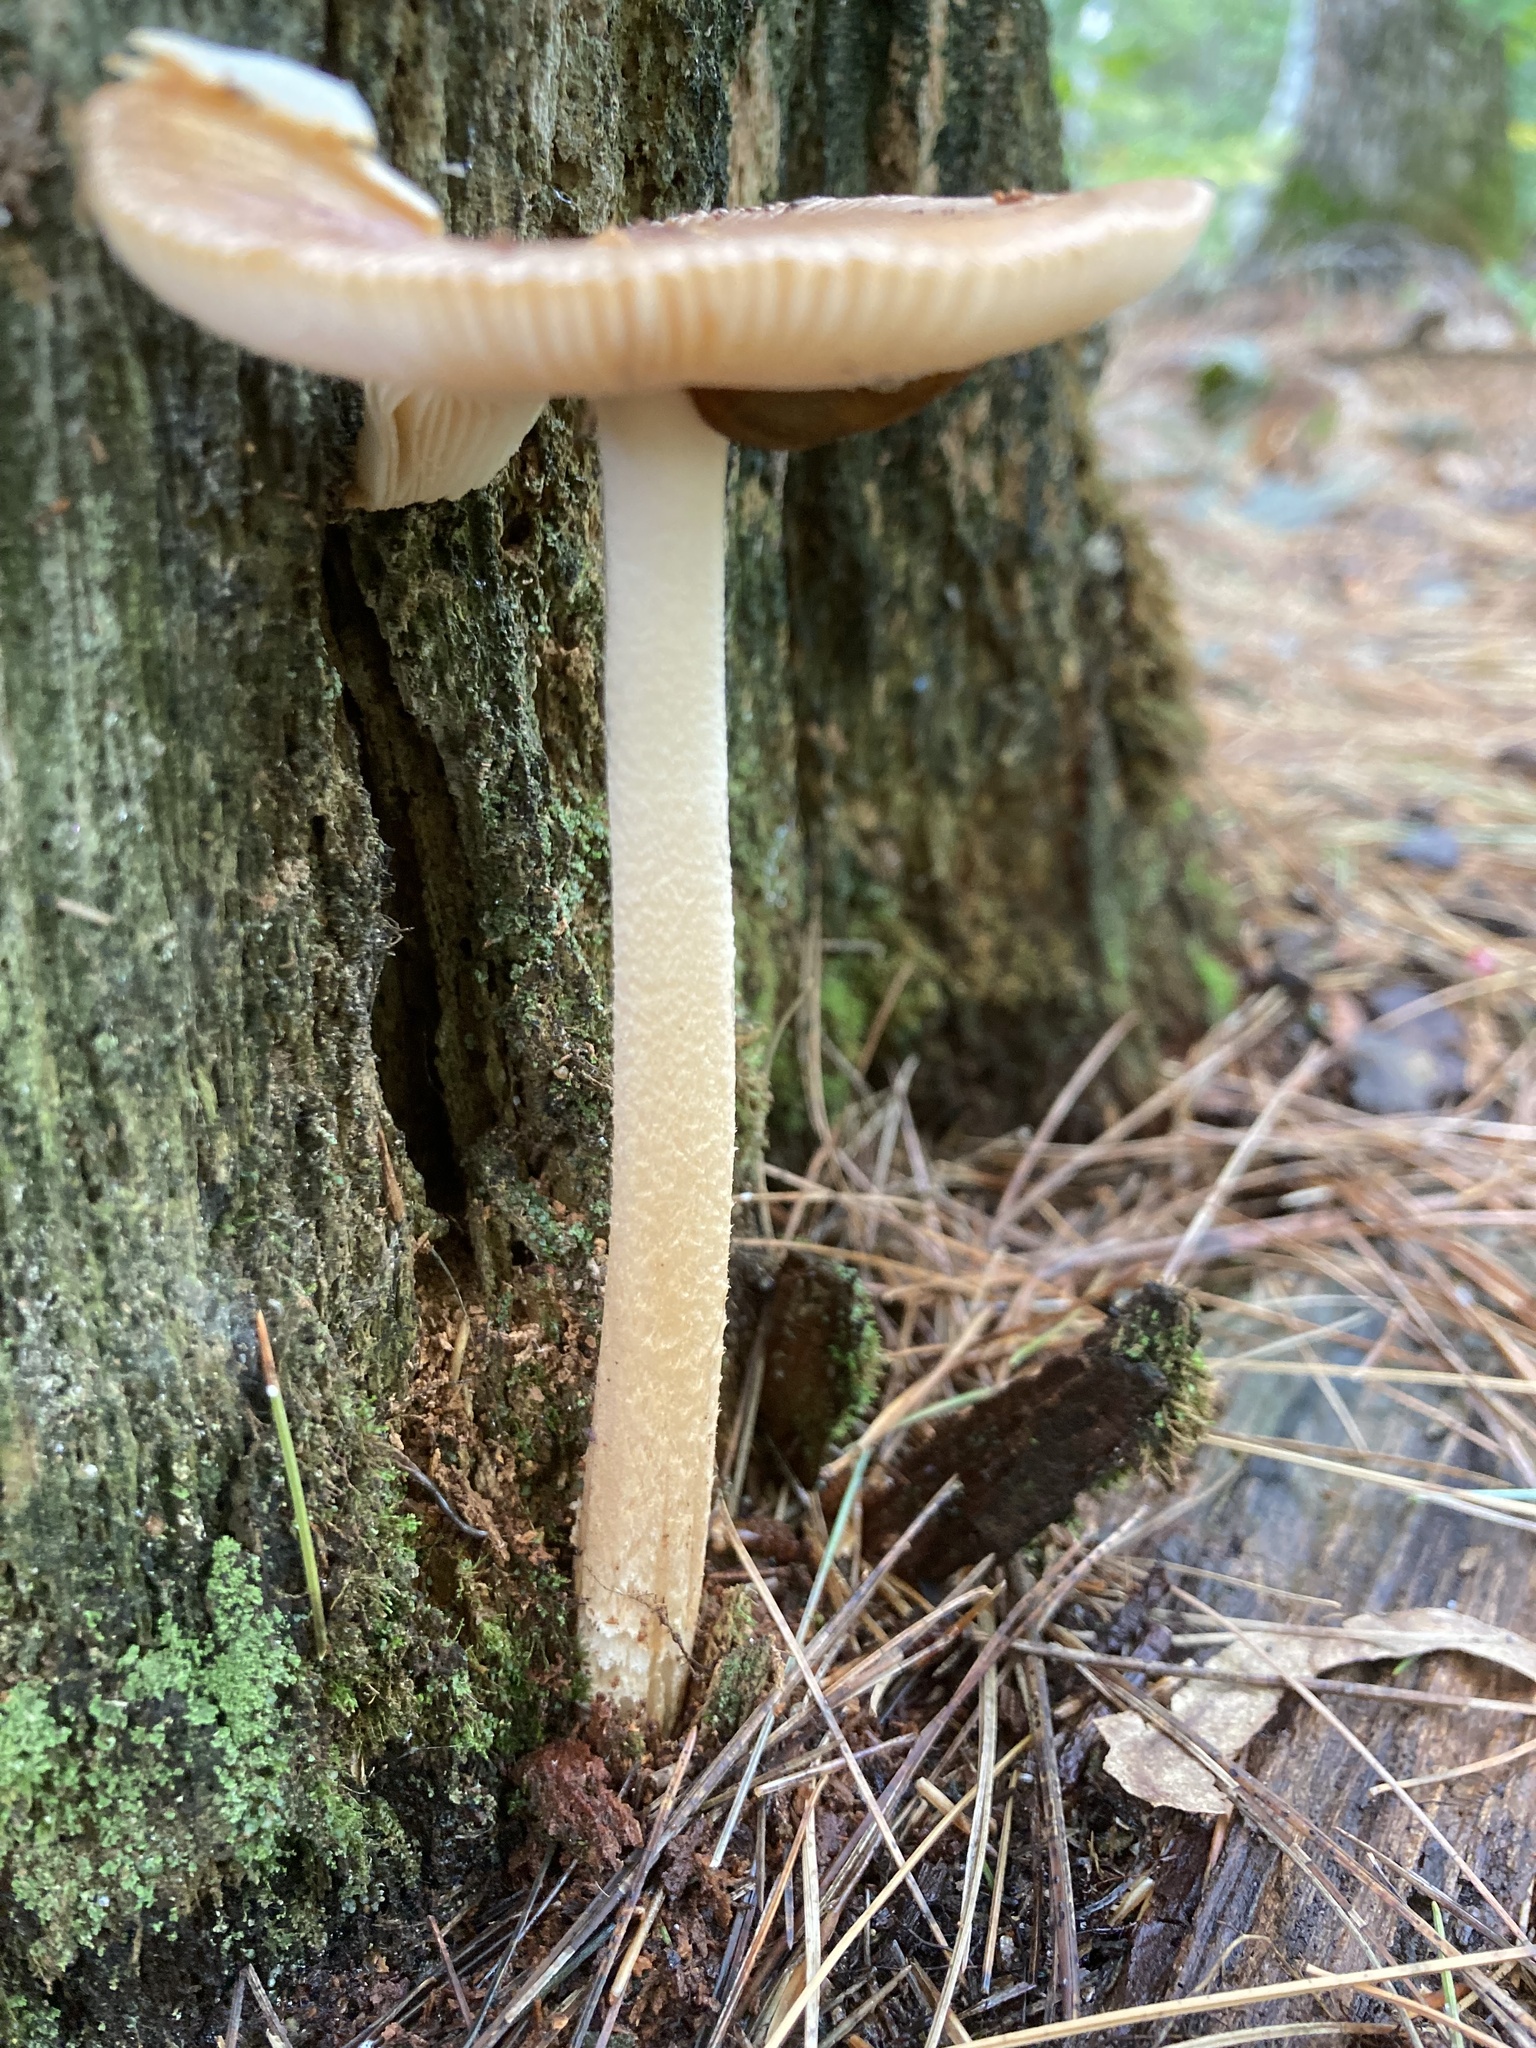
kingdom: Fungi
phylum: Basidiomycota
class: Agaricomycetes
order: Agaricales
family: Amanitaceae
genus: Amanita
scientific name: Amanita fulva
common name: Tawny grisette
